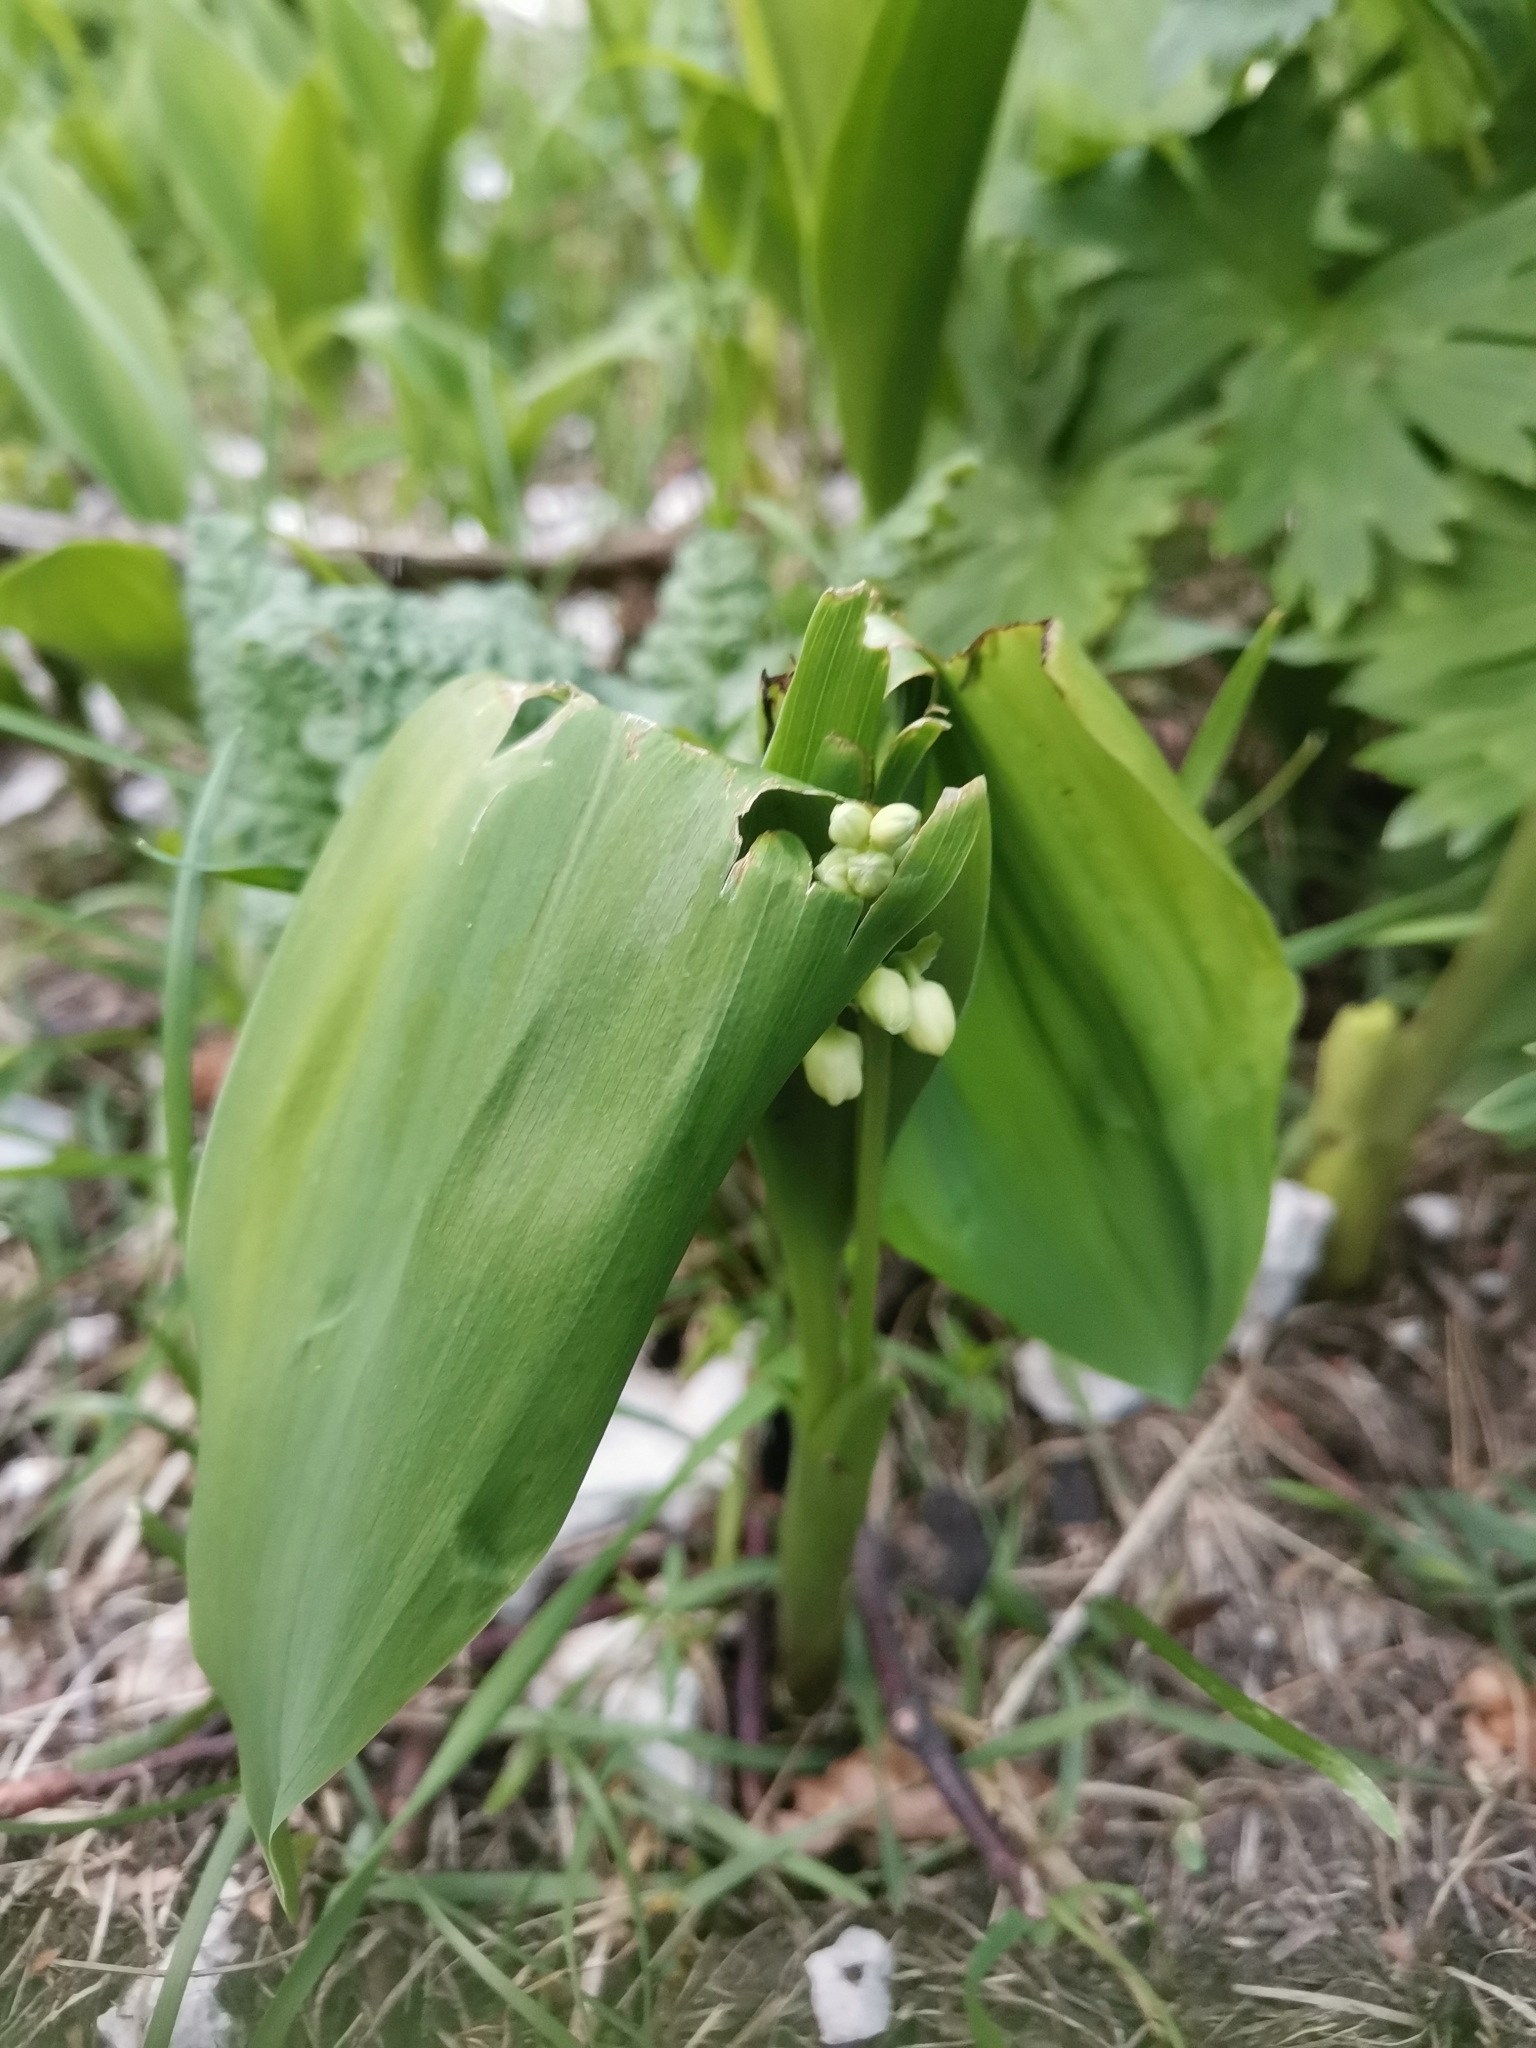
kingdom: Plantae
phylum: Tracheophyta
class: Liliopsida
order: Asparagales
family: Asparagaceae
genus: Convallaria
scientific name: Convallaria majalis
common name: Lily-of-the-valley
